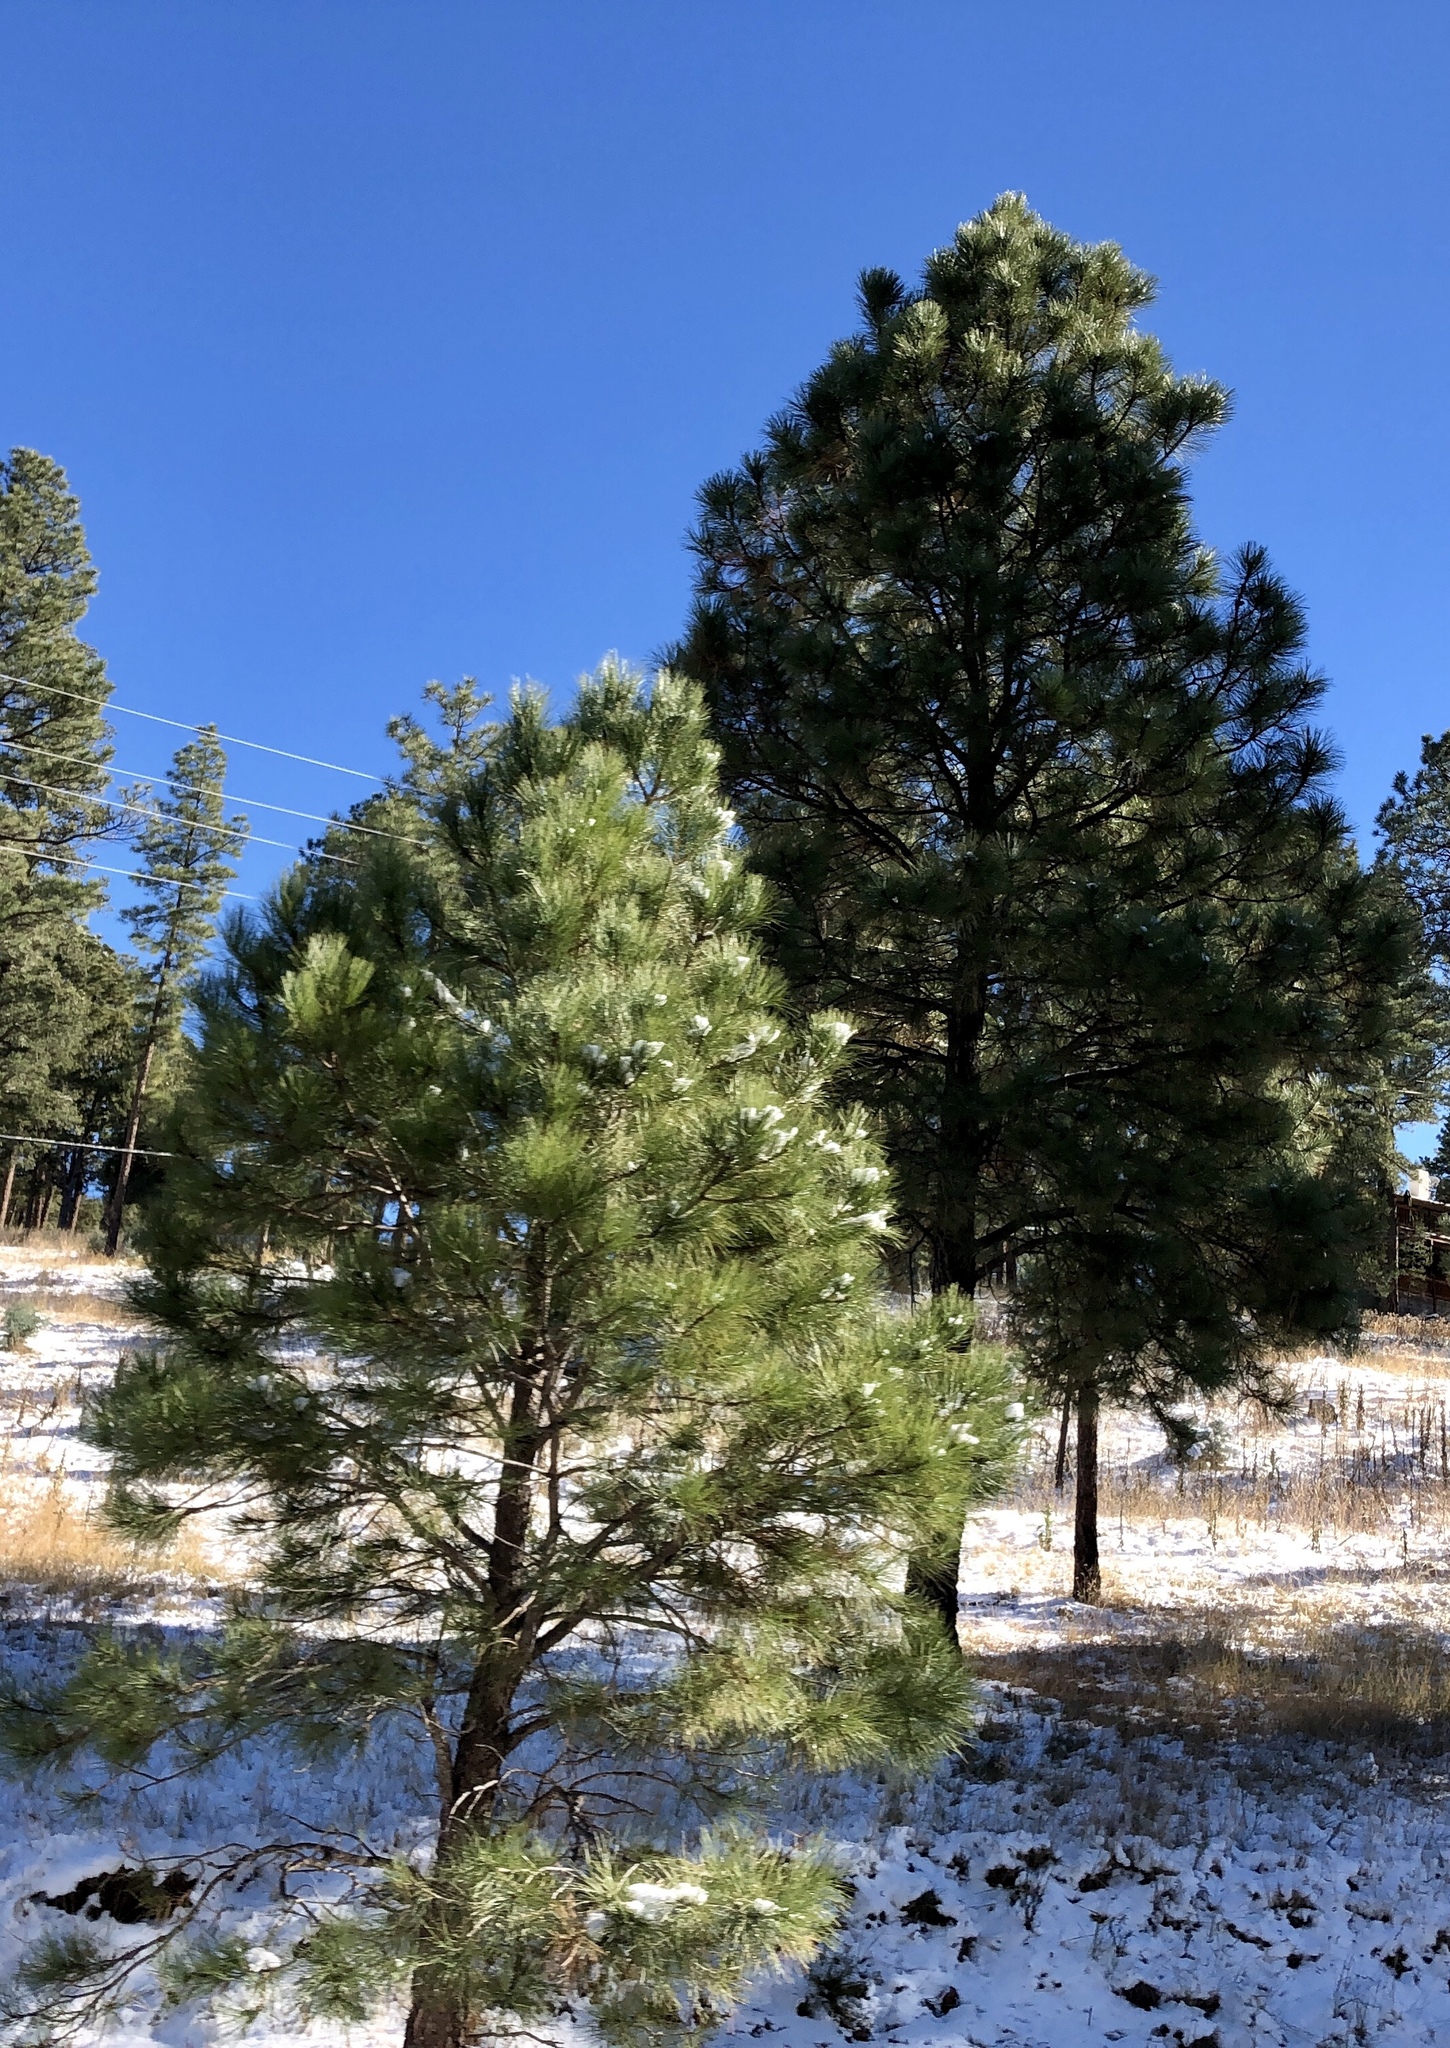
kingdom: Plantae
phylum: Tracheophyta
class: Pinopsida
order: Pinales
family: Pinaceae
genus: Pinus
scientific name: Pinus ponderosa
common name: Western yellow-pine
